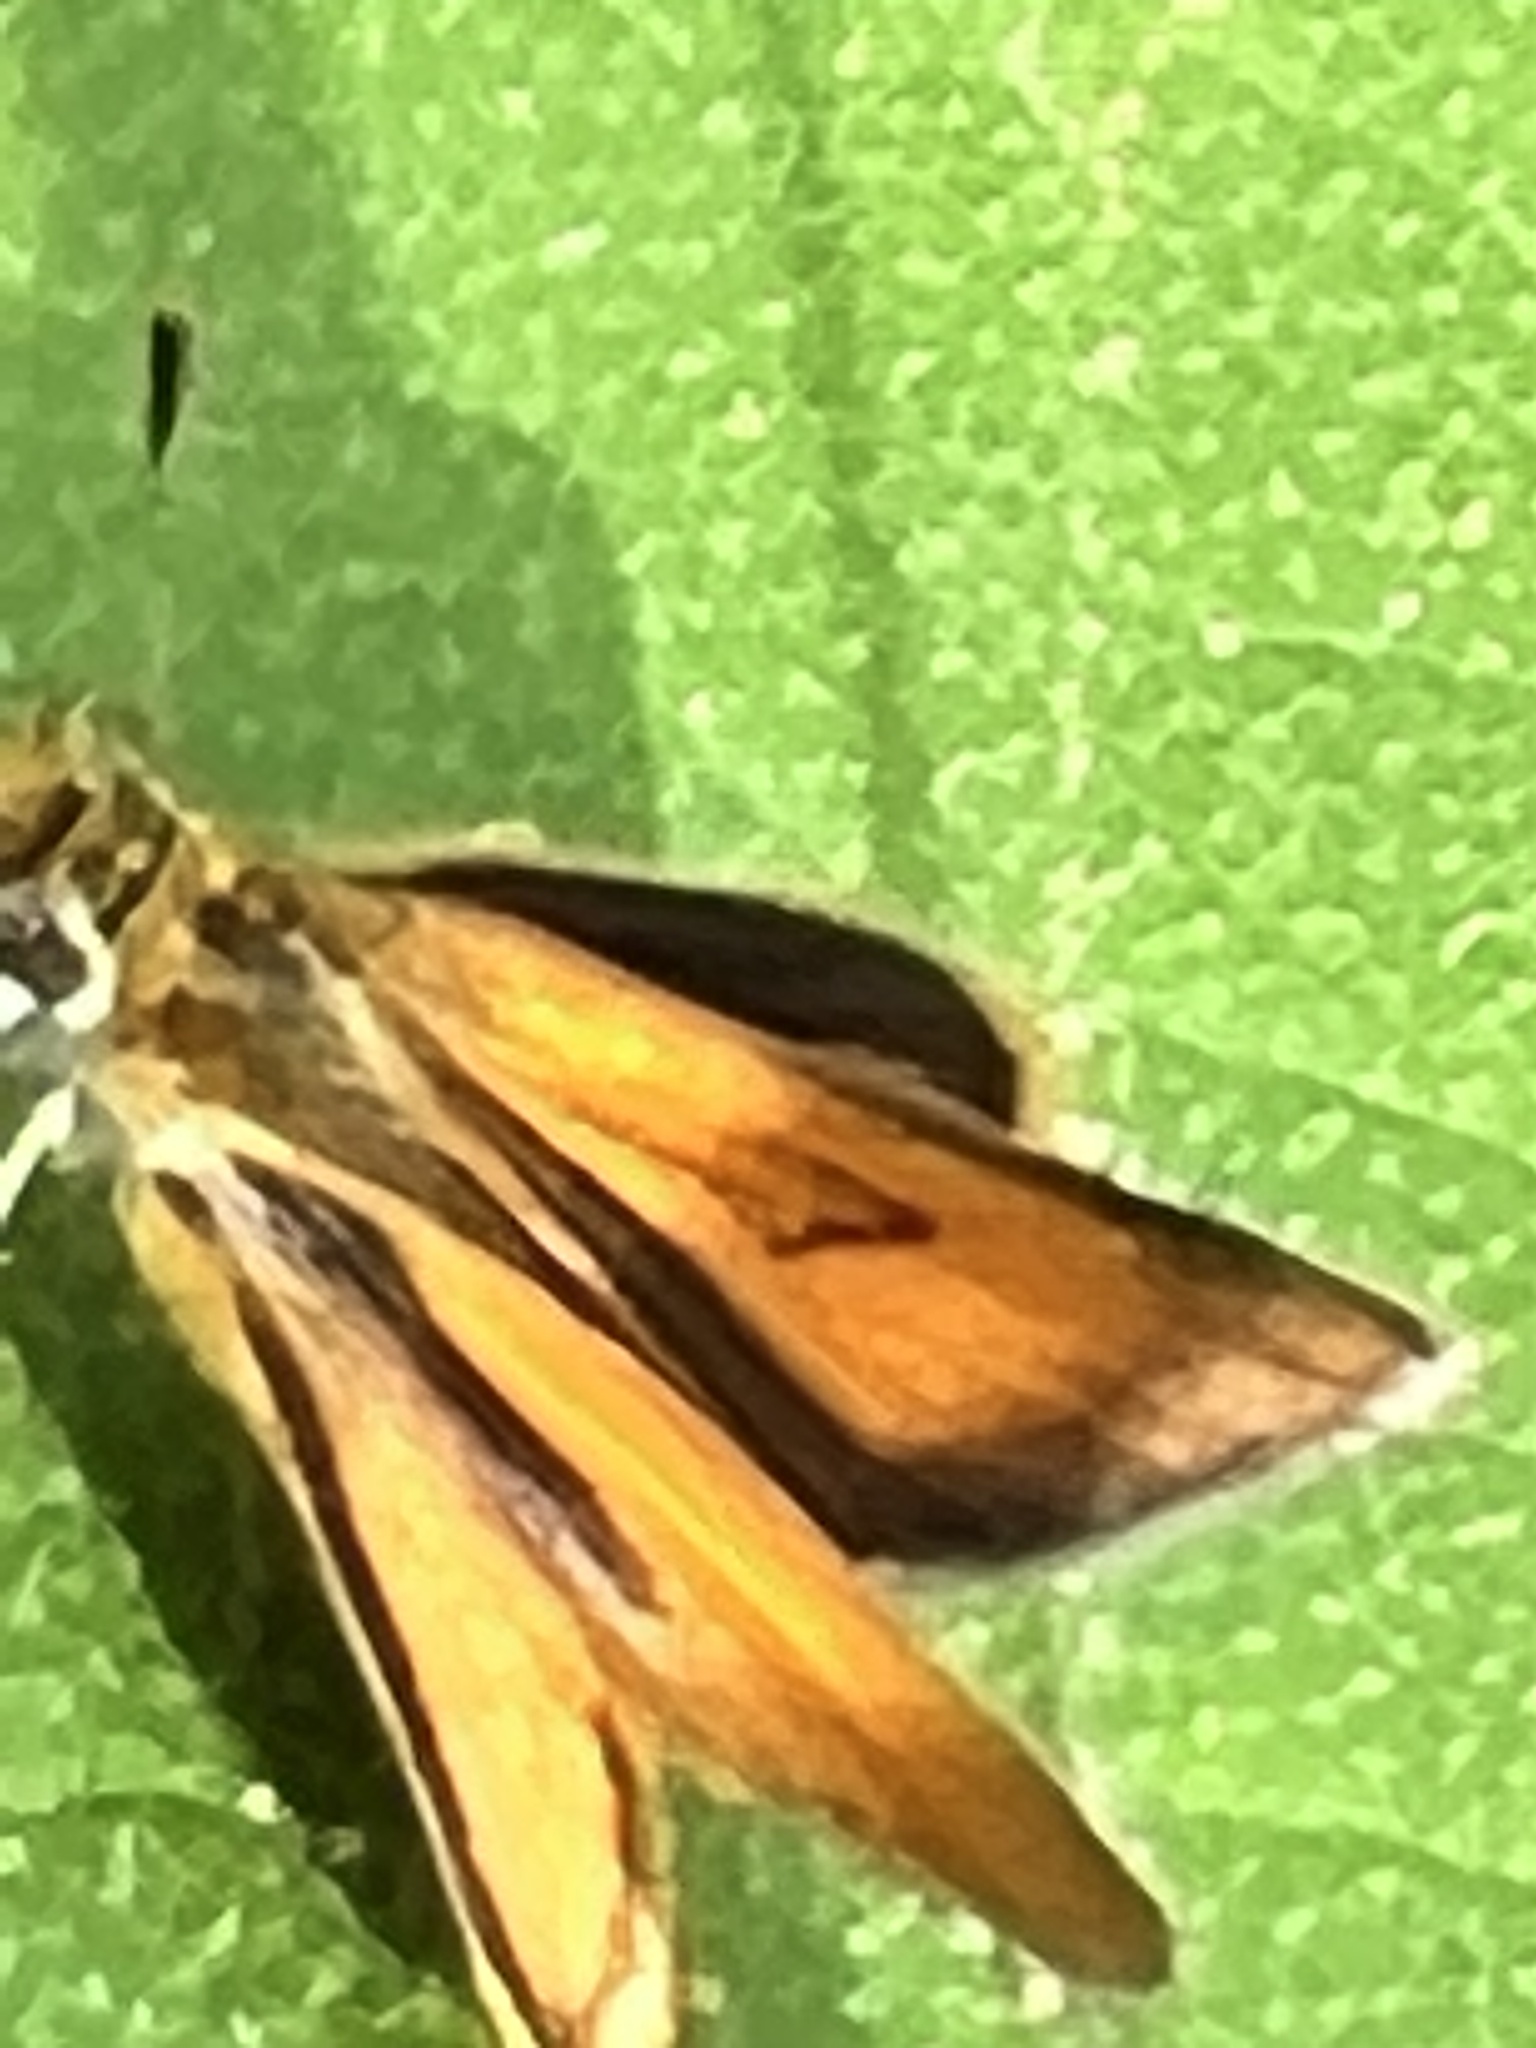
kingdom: Animalia
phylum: Arthropoda
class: Insecta
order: Lepidoptera
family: Hesperiidae
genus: Ancyloxypha
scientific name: Ancyloxypha arene
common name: Tropical least skipper
